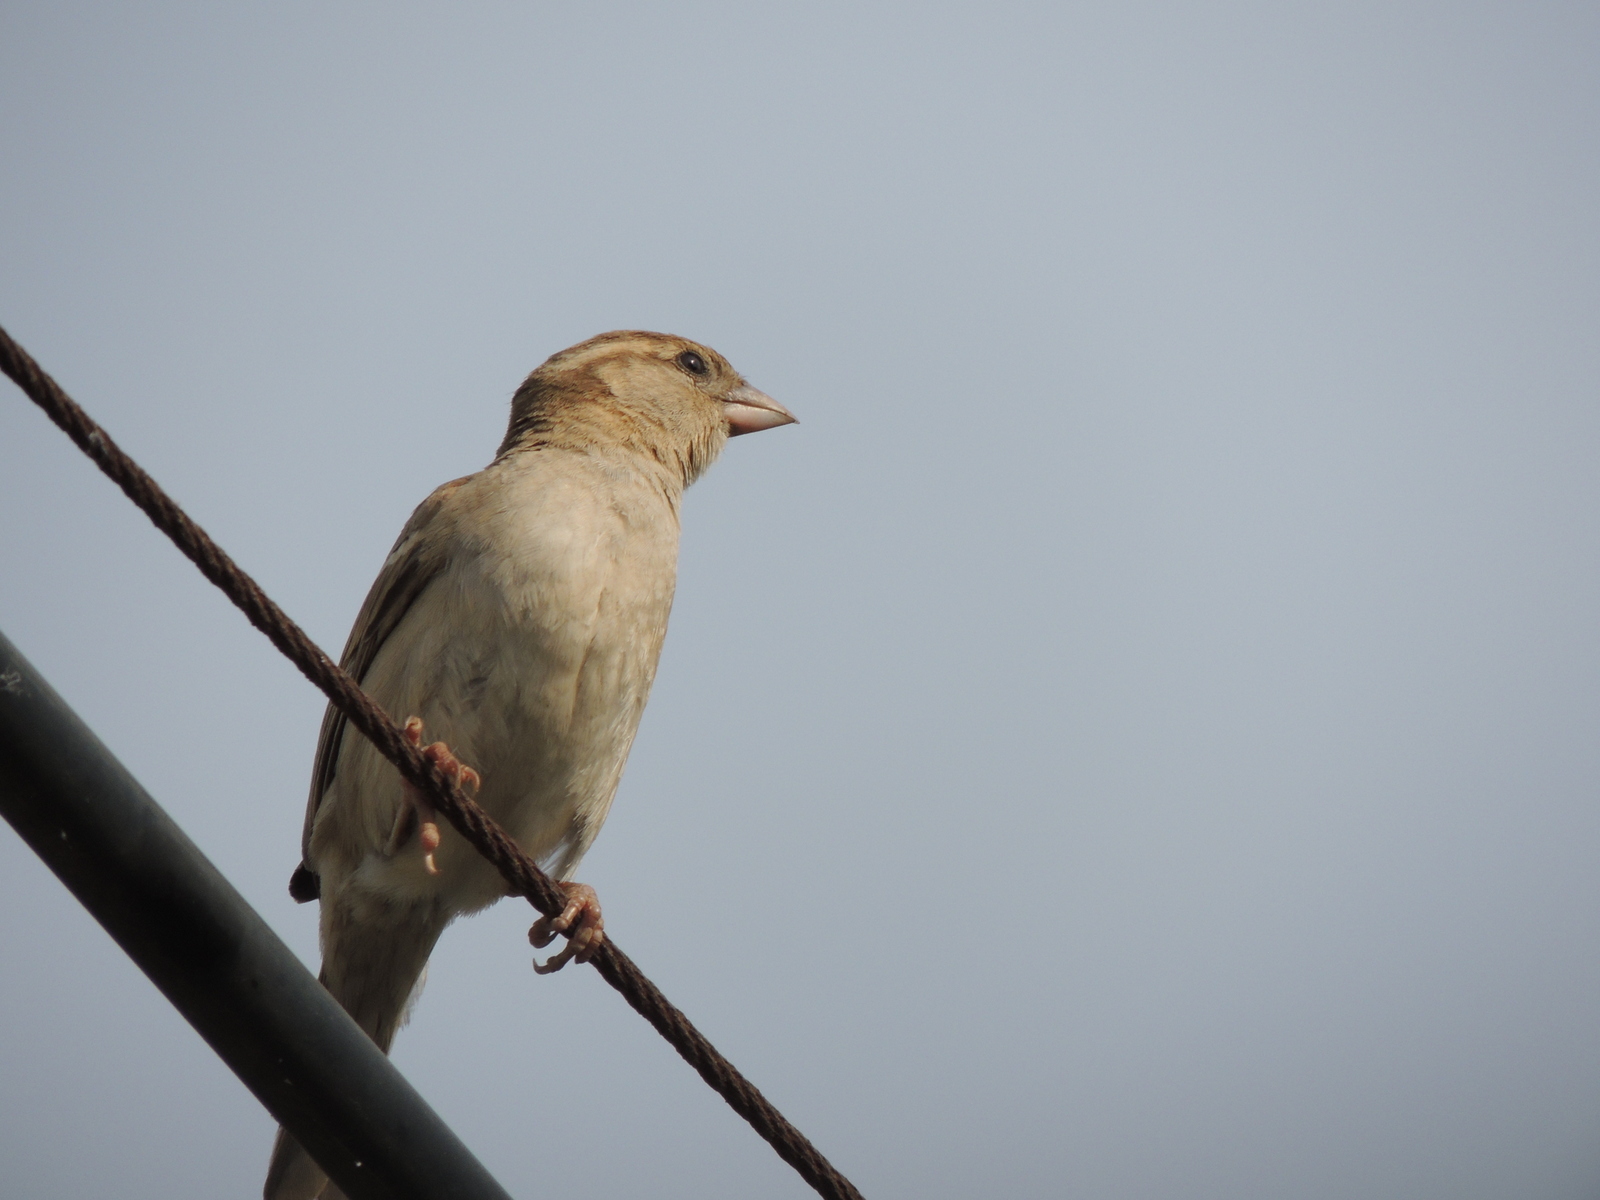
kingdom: Animalia
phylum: Chordata
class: Aves
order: Passeriformes
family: Passeridae
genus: Passer
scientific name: Passer domesticus
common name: House sparrow
